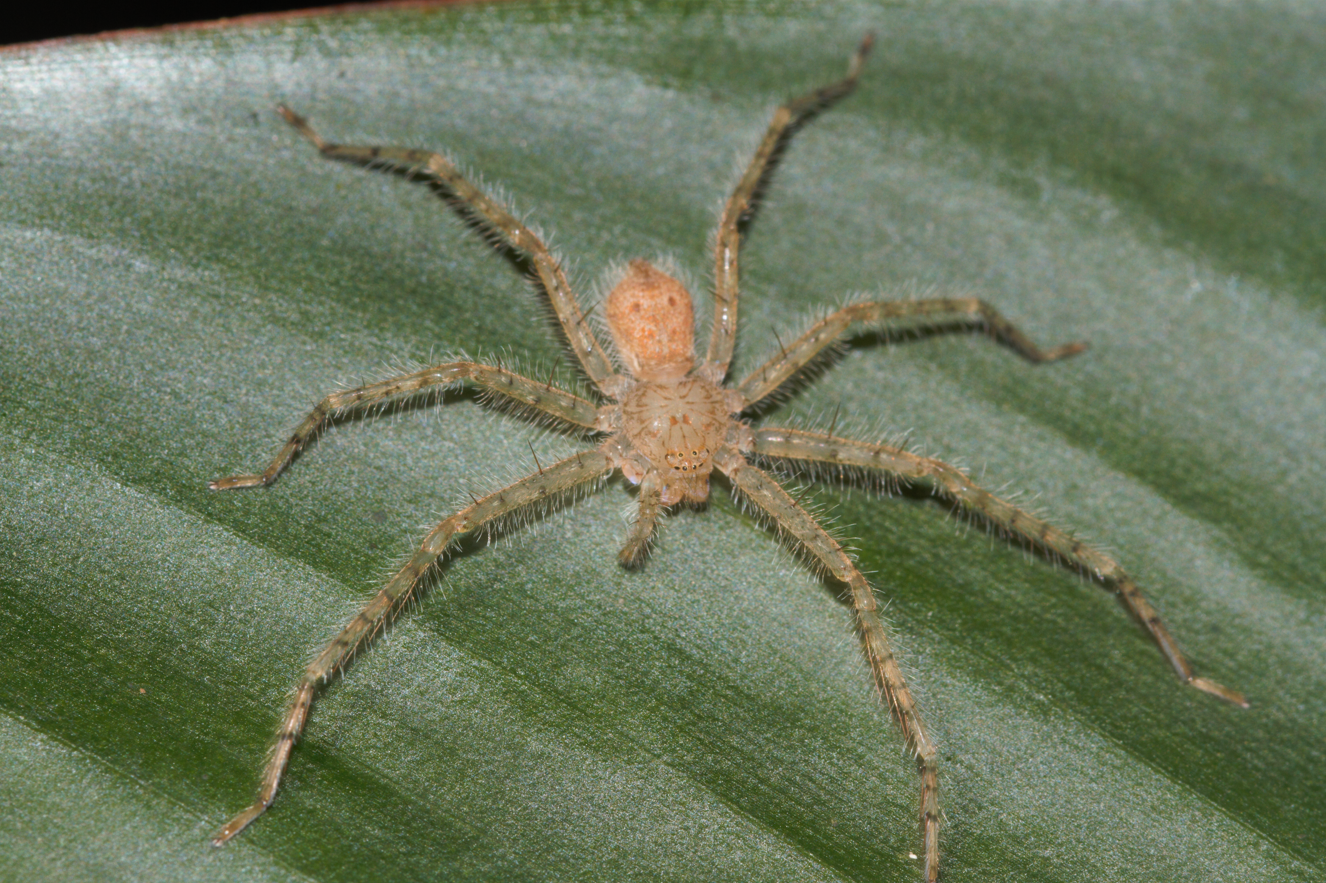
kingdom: Animalia
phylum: Arthropoda
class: Arachnida
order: Araneae
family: Sparassidae
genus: Guadana
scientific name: Guadana arawak
